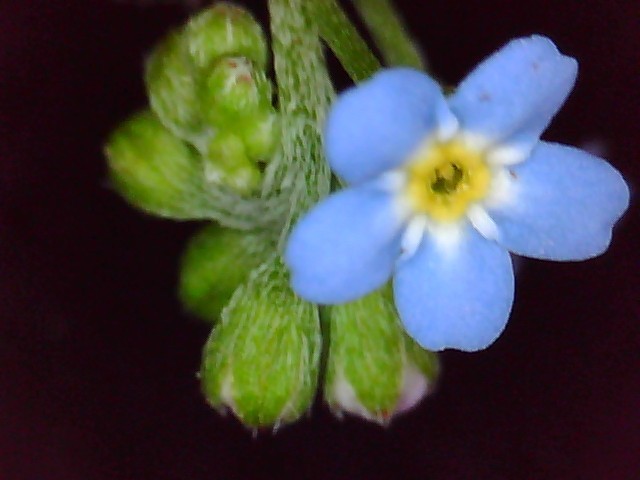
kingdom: Plantae
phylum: Tracheophyta
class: Magnoliopsida
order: Boraginales
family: Boraginaceae
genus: Myosotis
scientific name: Myosotis laxa
